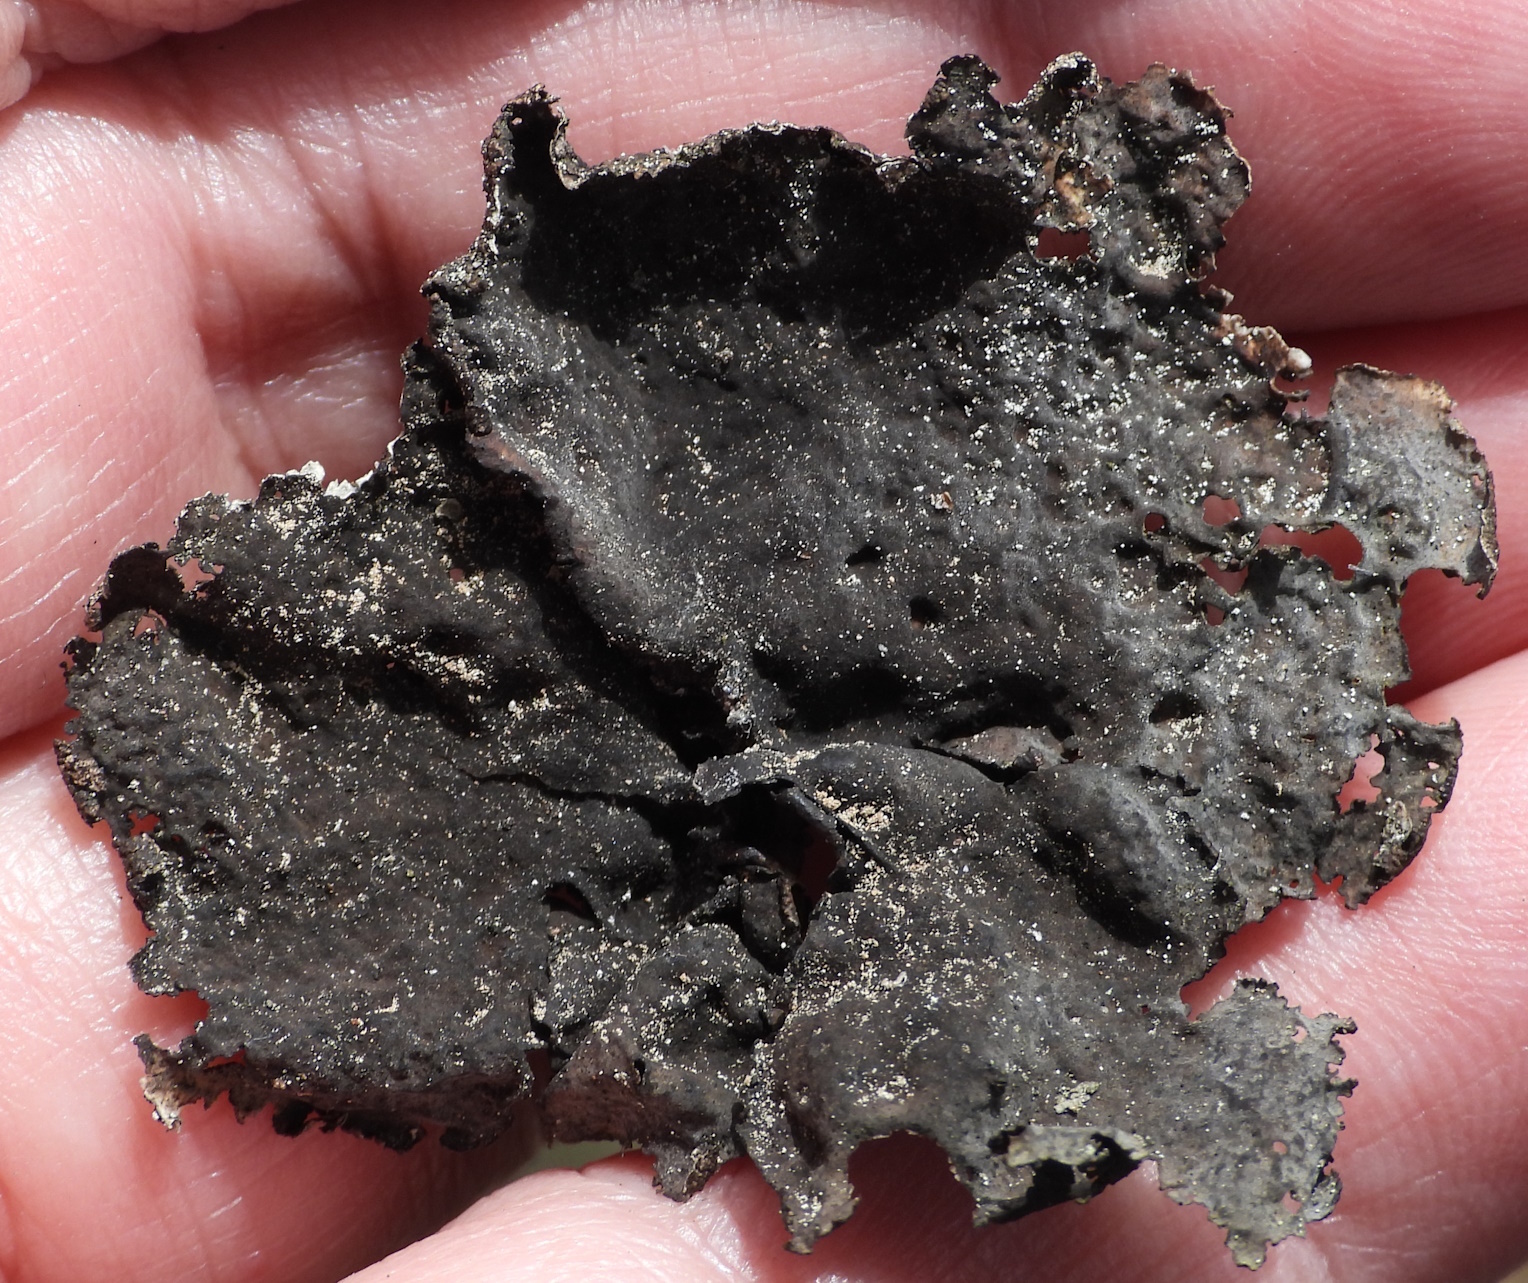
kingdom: Fungi
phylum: Ascomycota
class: Lecanoromycetes
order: Umbilicariales
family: Umbilicariaceae
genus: Umbilicaria
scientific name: Umbilicaria torrefacta
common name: Punctured rock tripe lichen
